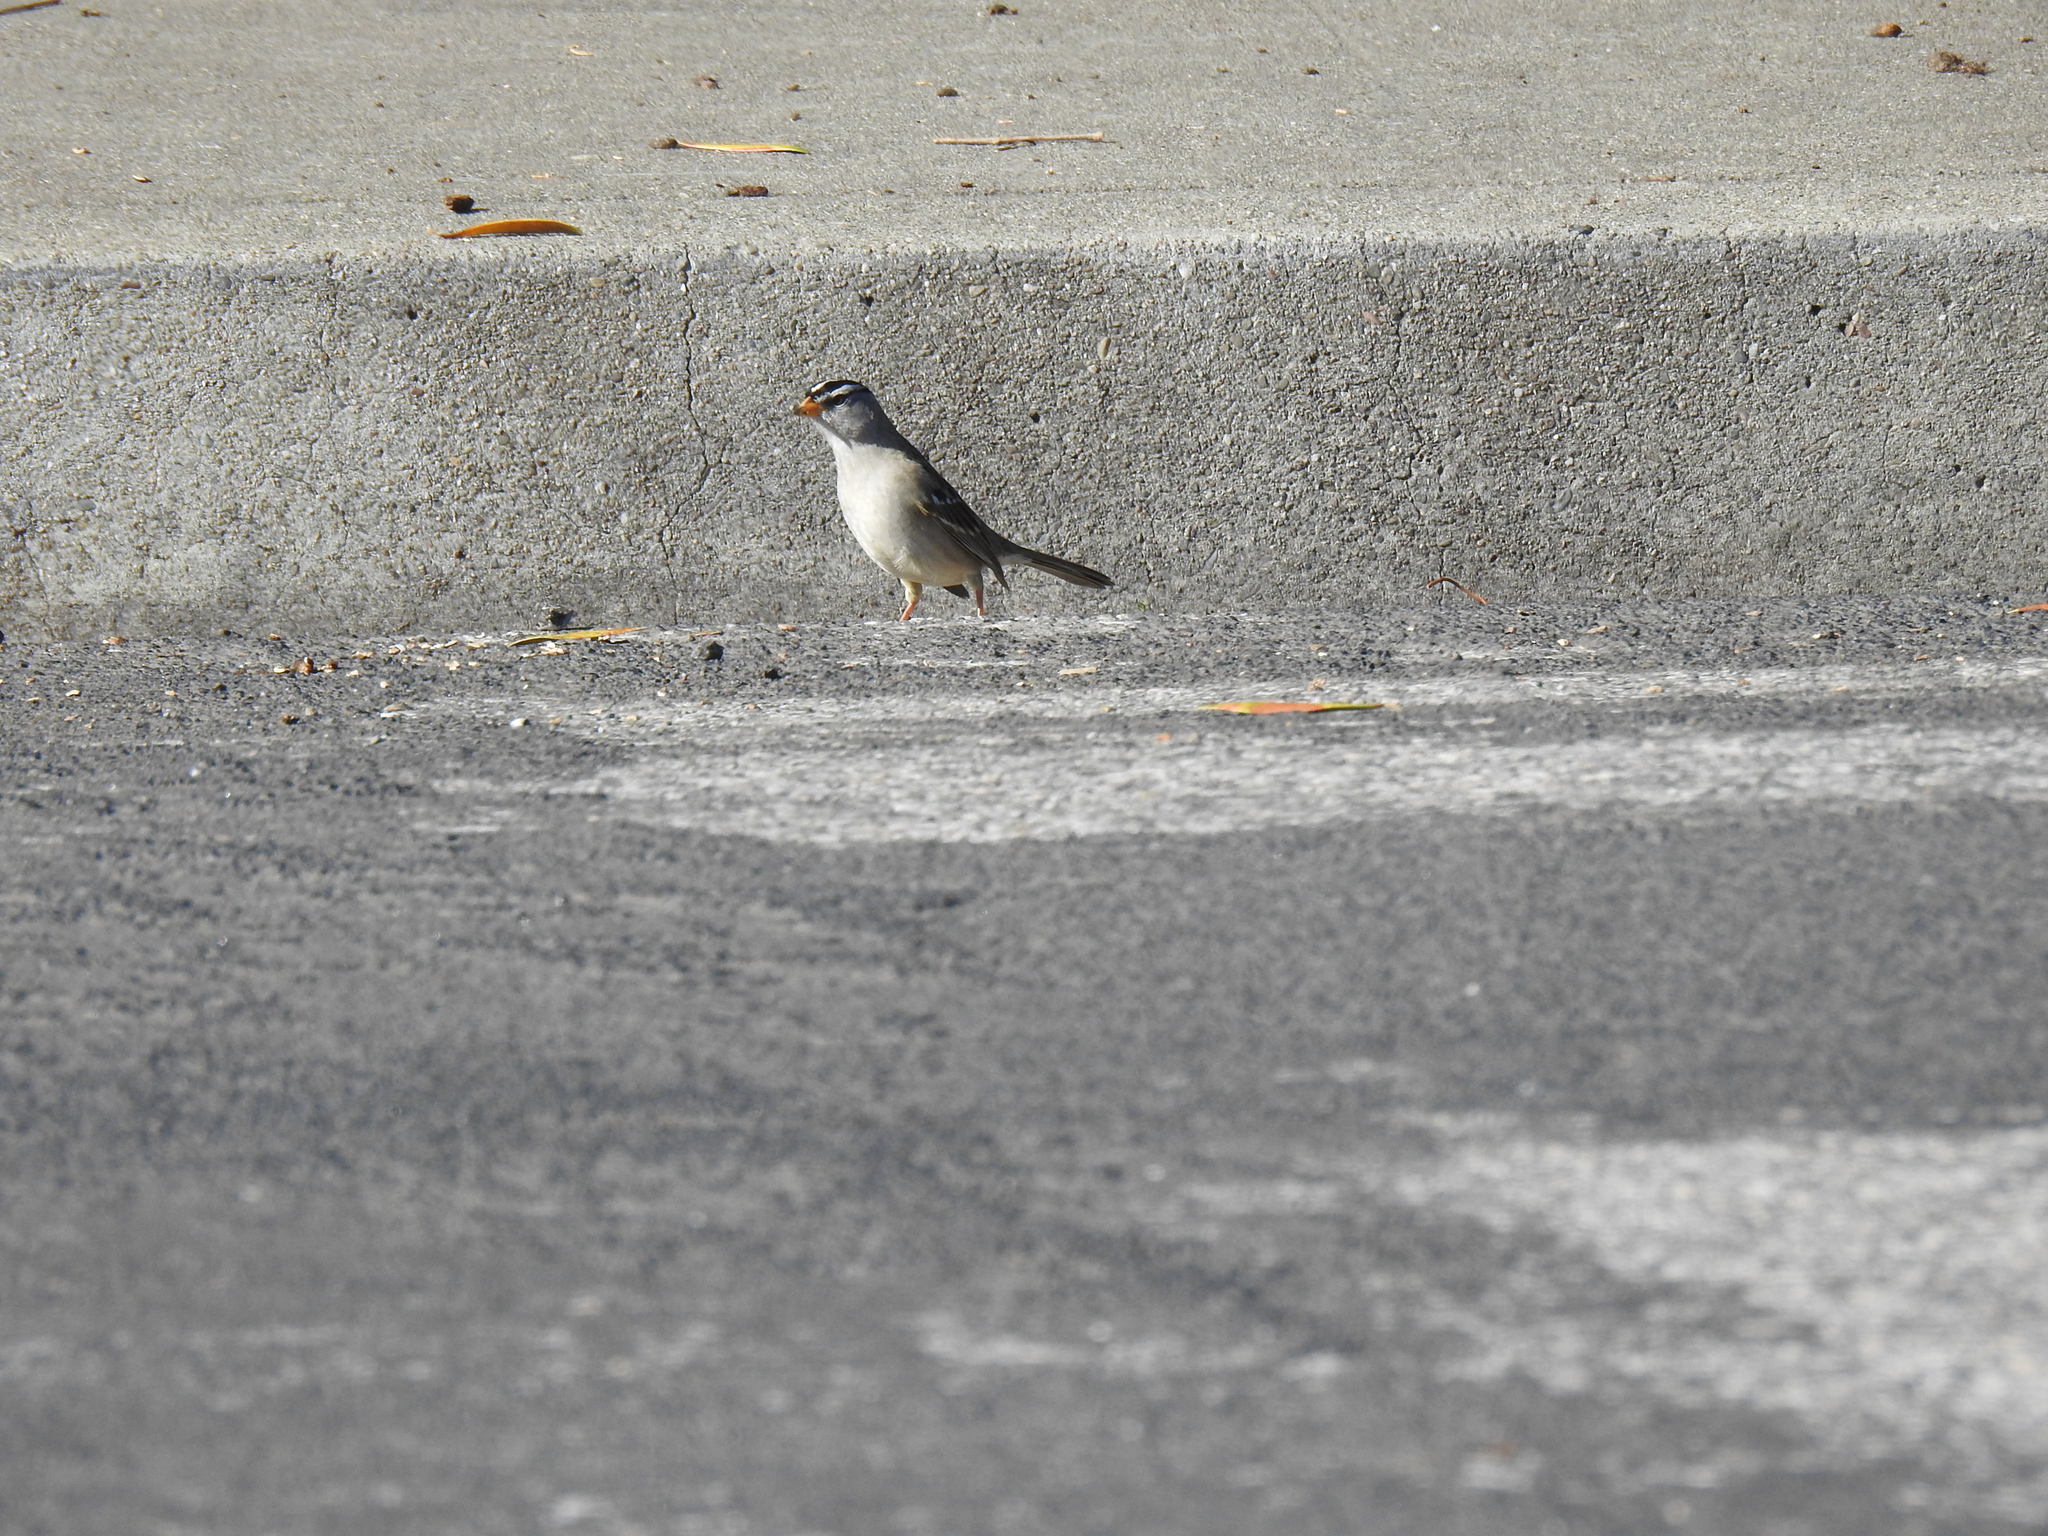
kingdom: Animalia
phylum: Chordata
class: Aves
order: Passeriformes
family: Passerellidae
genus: Zonotrichia
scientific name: Zonotrichia leucophrys
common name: White-crowned sparrow
